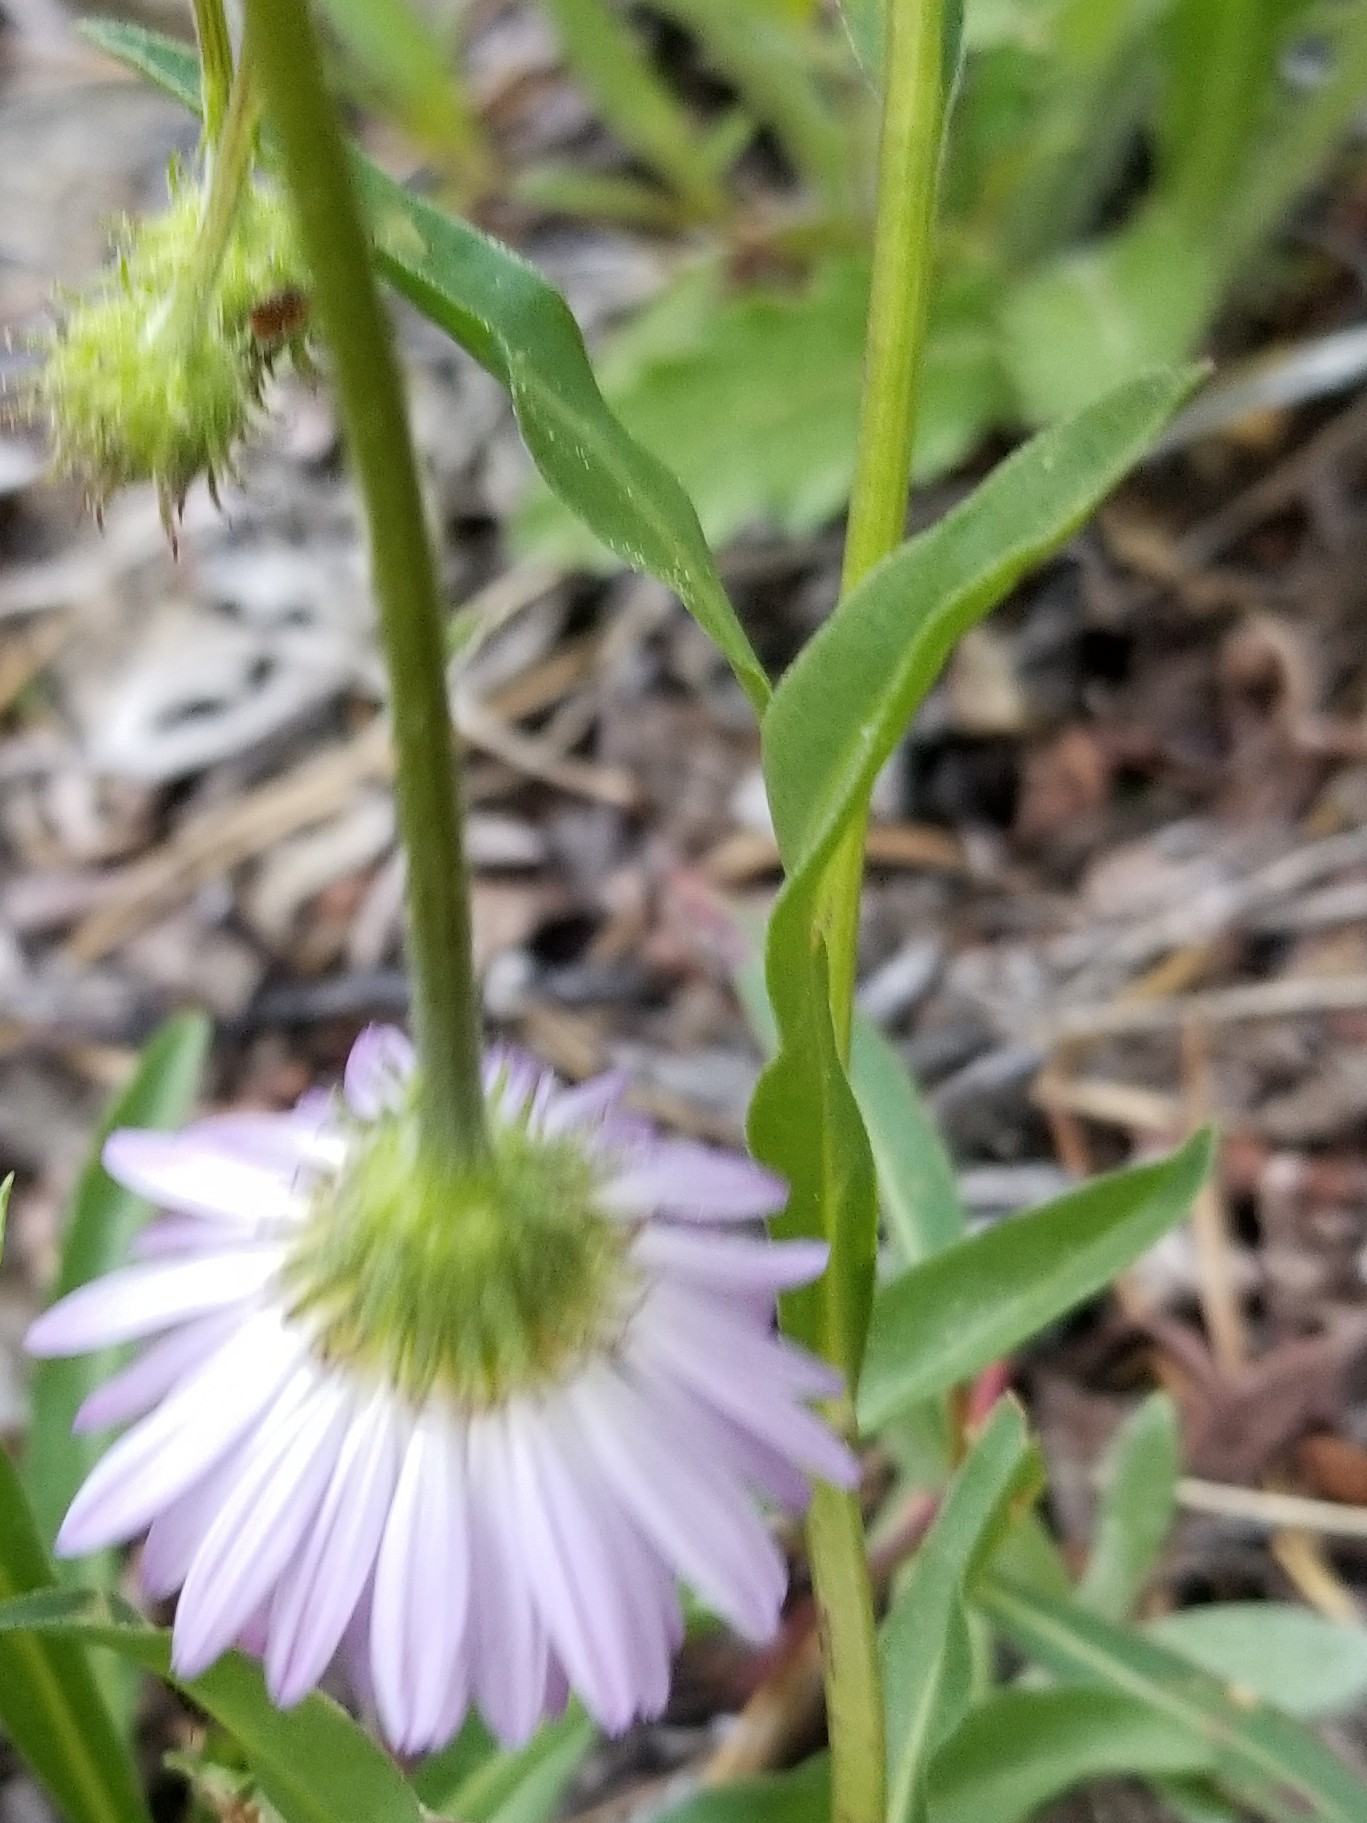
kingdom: Plantae
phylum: Tracheophyta
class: Magnoliopsida
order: Ericales
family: Polemoniaceae
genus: Phlox
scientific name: Phlox diffusa
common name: Mat phlox
